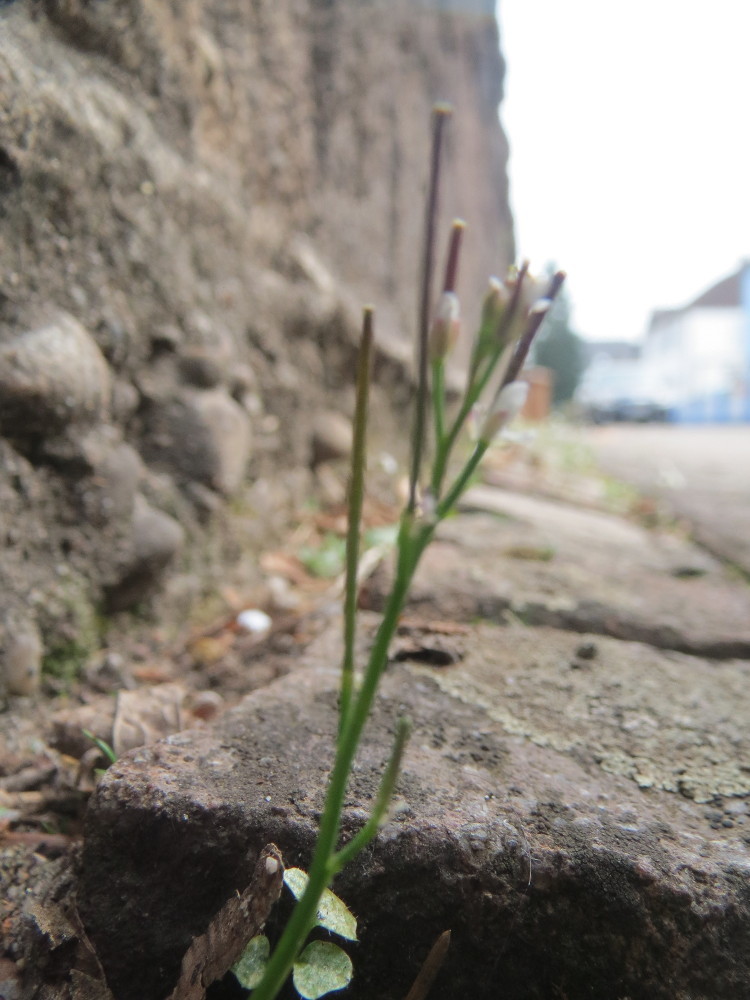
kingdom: Plantae
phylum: Tracheophyta
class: Magnoliopsida
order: Brassicales
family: Brassicaceae
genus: Cardamine
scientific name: Cardamine hirsuta
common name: Hairy bittercress
